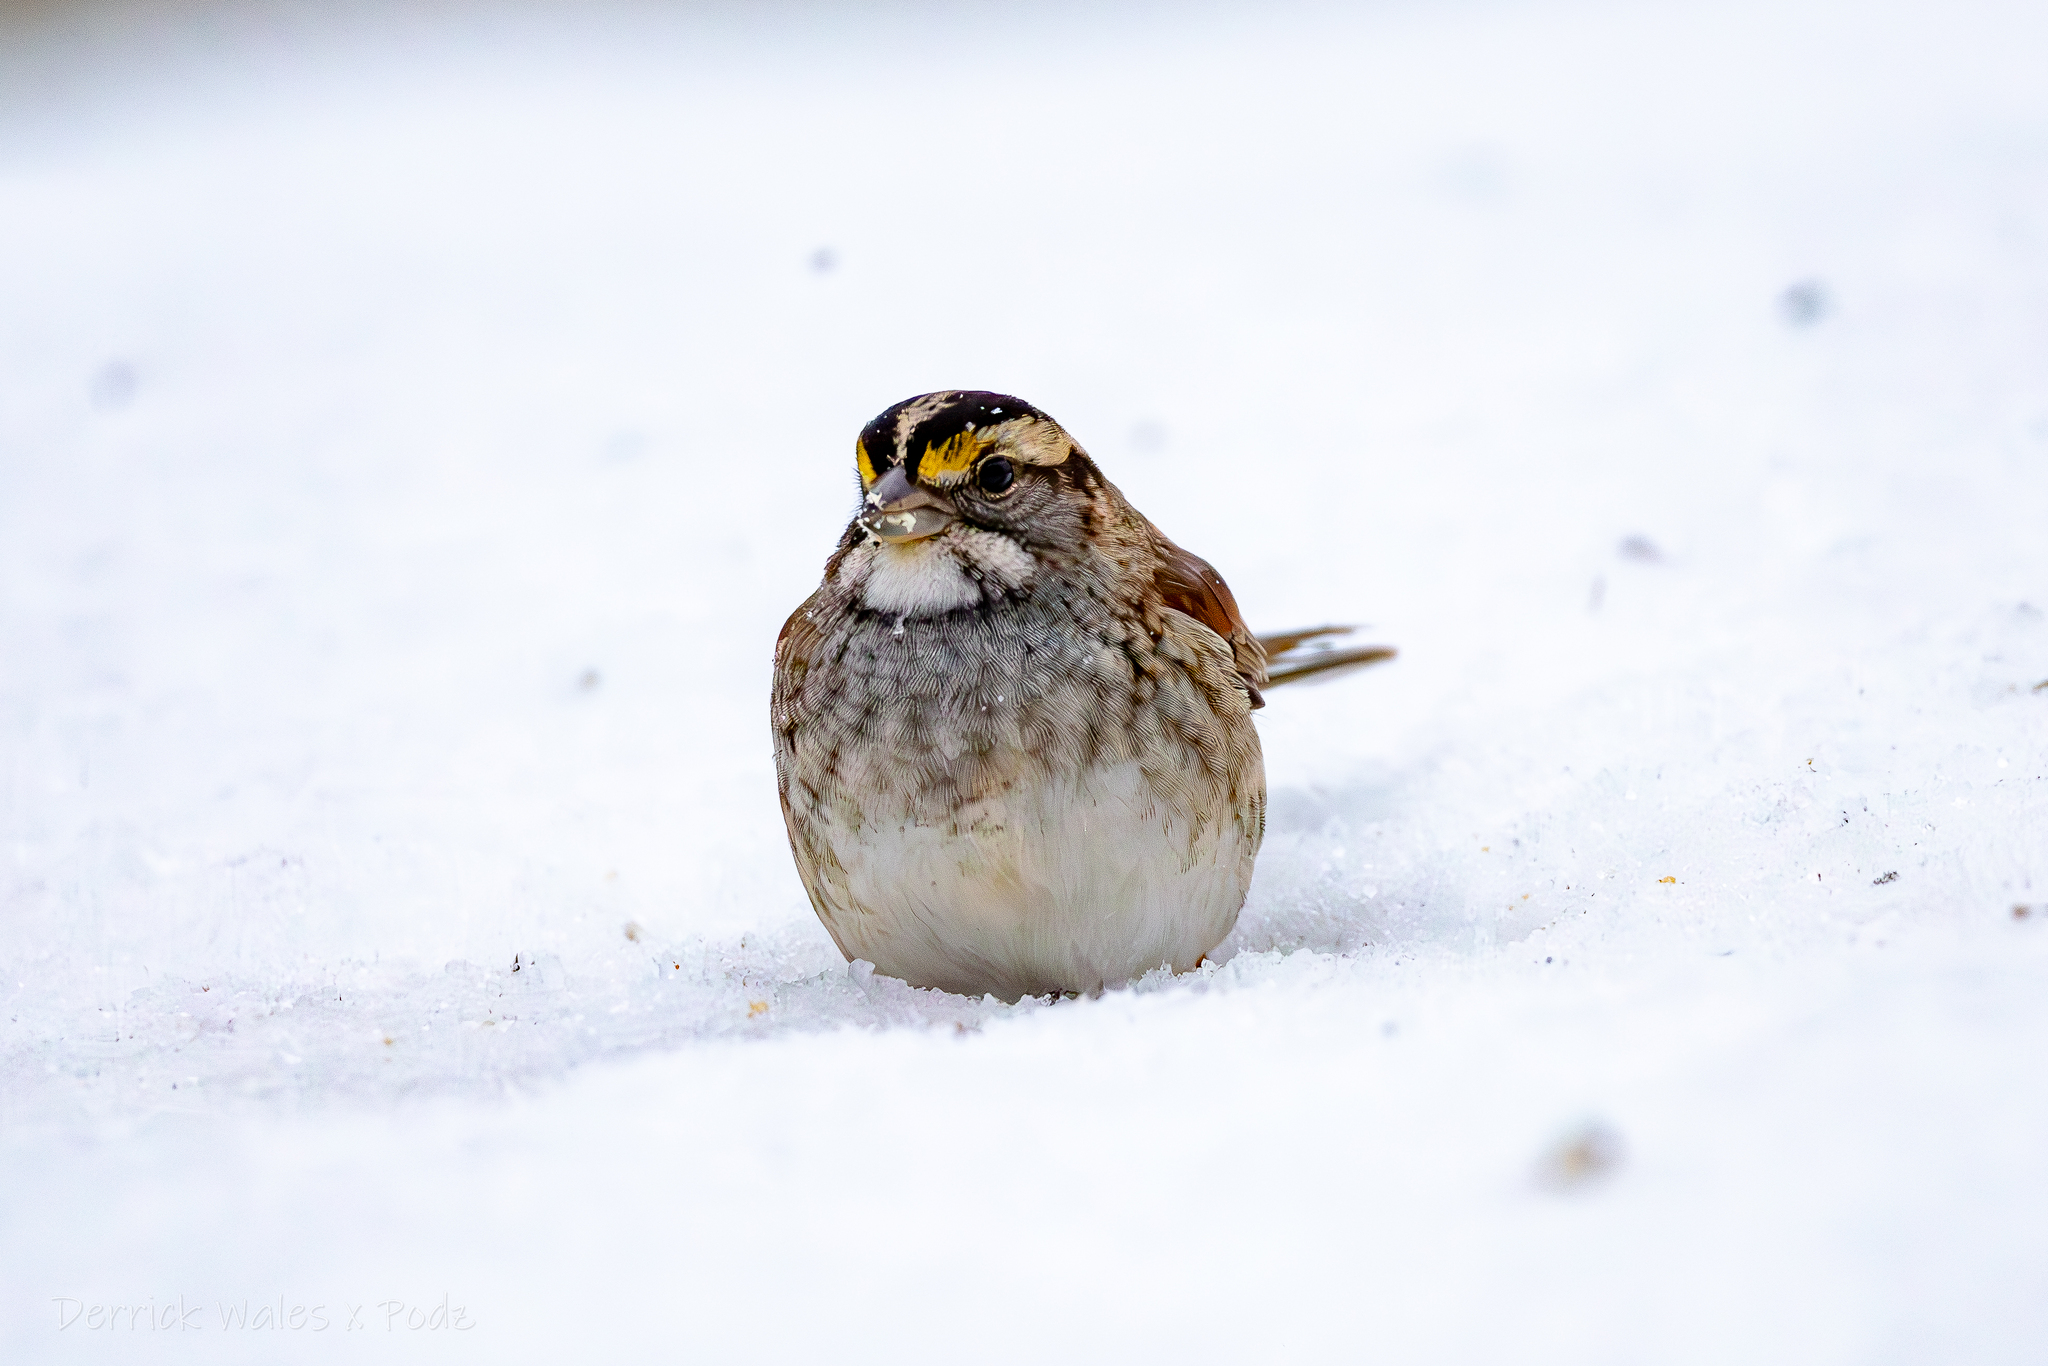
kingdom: Animalia
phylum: Chordata
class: Aves
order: Passeriformes
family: Passerellidae
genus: Zonotrichia
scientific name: Zonotrichia albicollis
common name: White-throated sparrow
